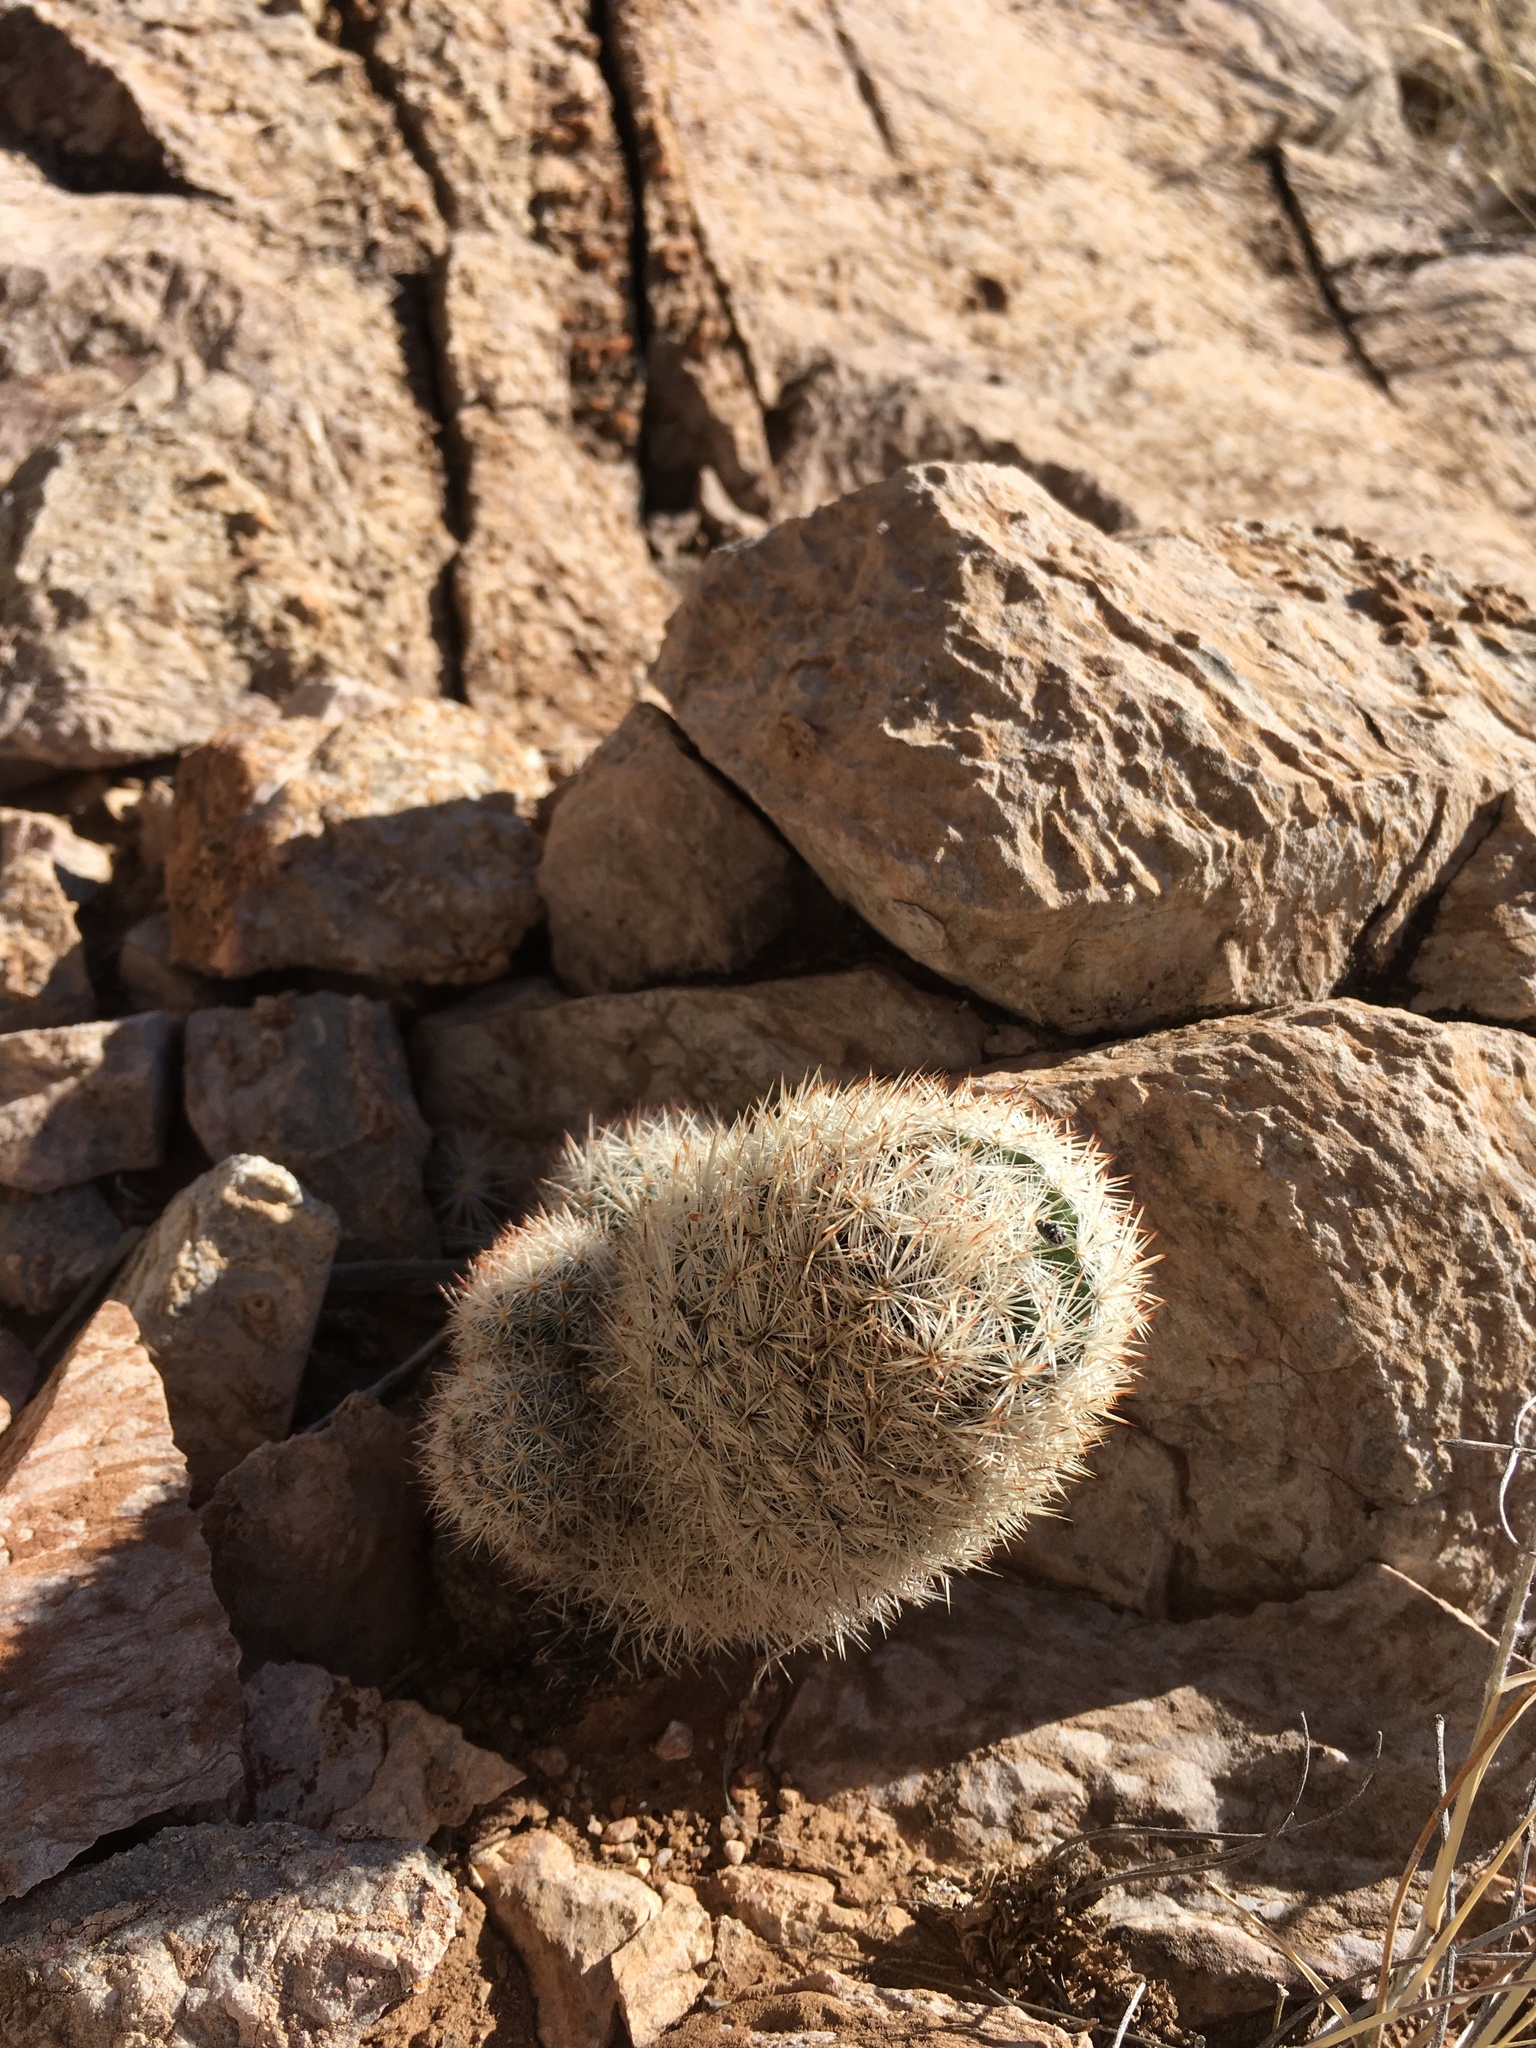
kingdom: Plantae
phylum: Tracheophyta
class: Magnoliopsida
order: Caryophyllales
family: Cactaceae
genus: Pelecyphora
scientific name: Pelecyphora sneedii
